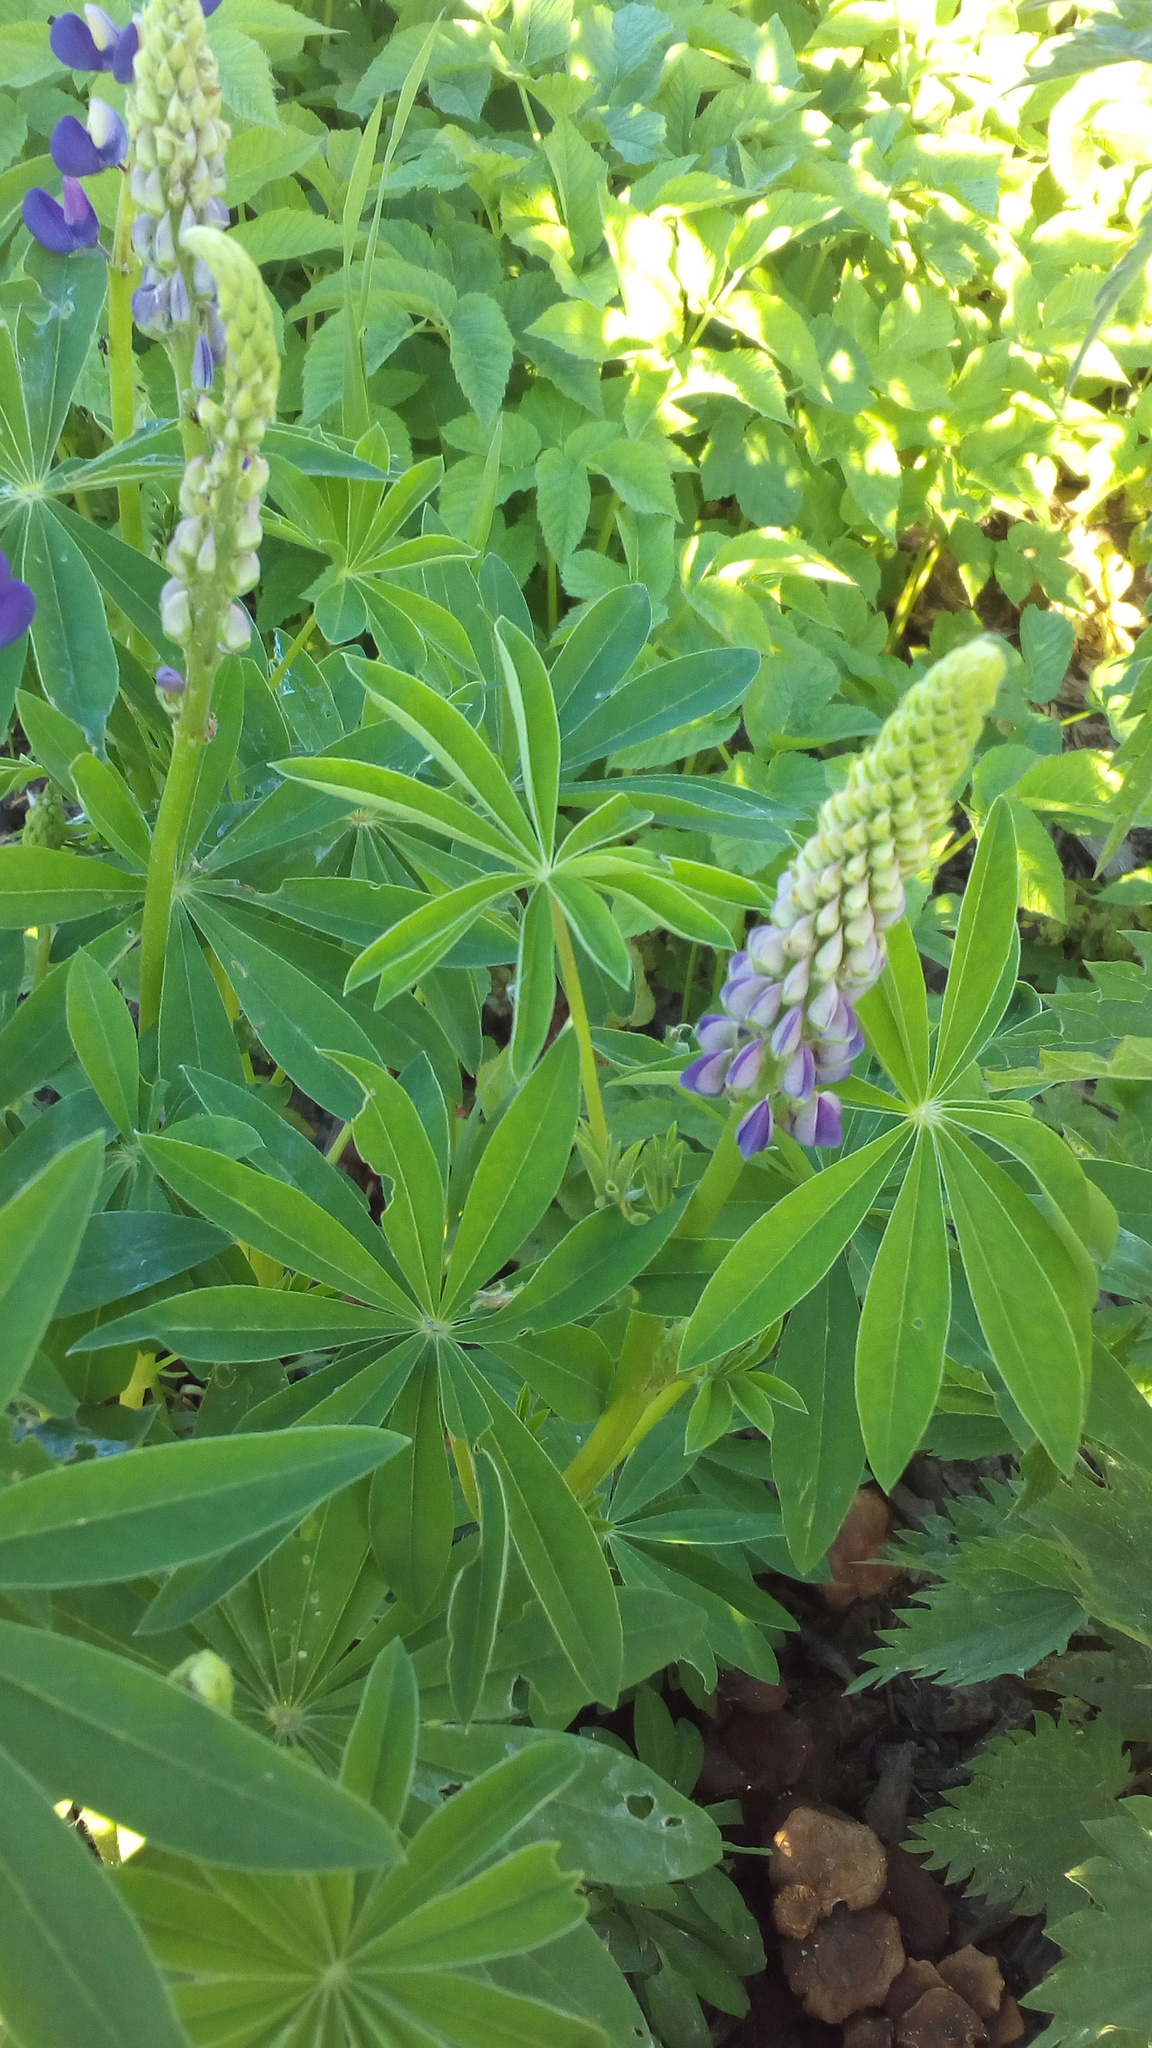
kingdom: Plantae
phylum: Tracheophyta
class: Magnoliopsida
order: Fabales
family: Fabaceae
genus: Lupinus
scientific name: Lupinus polyphyllus
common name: Garden lupin
